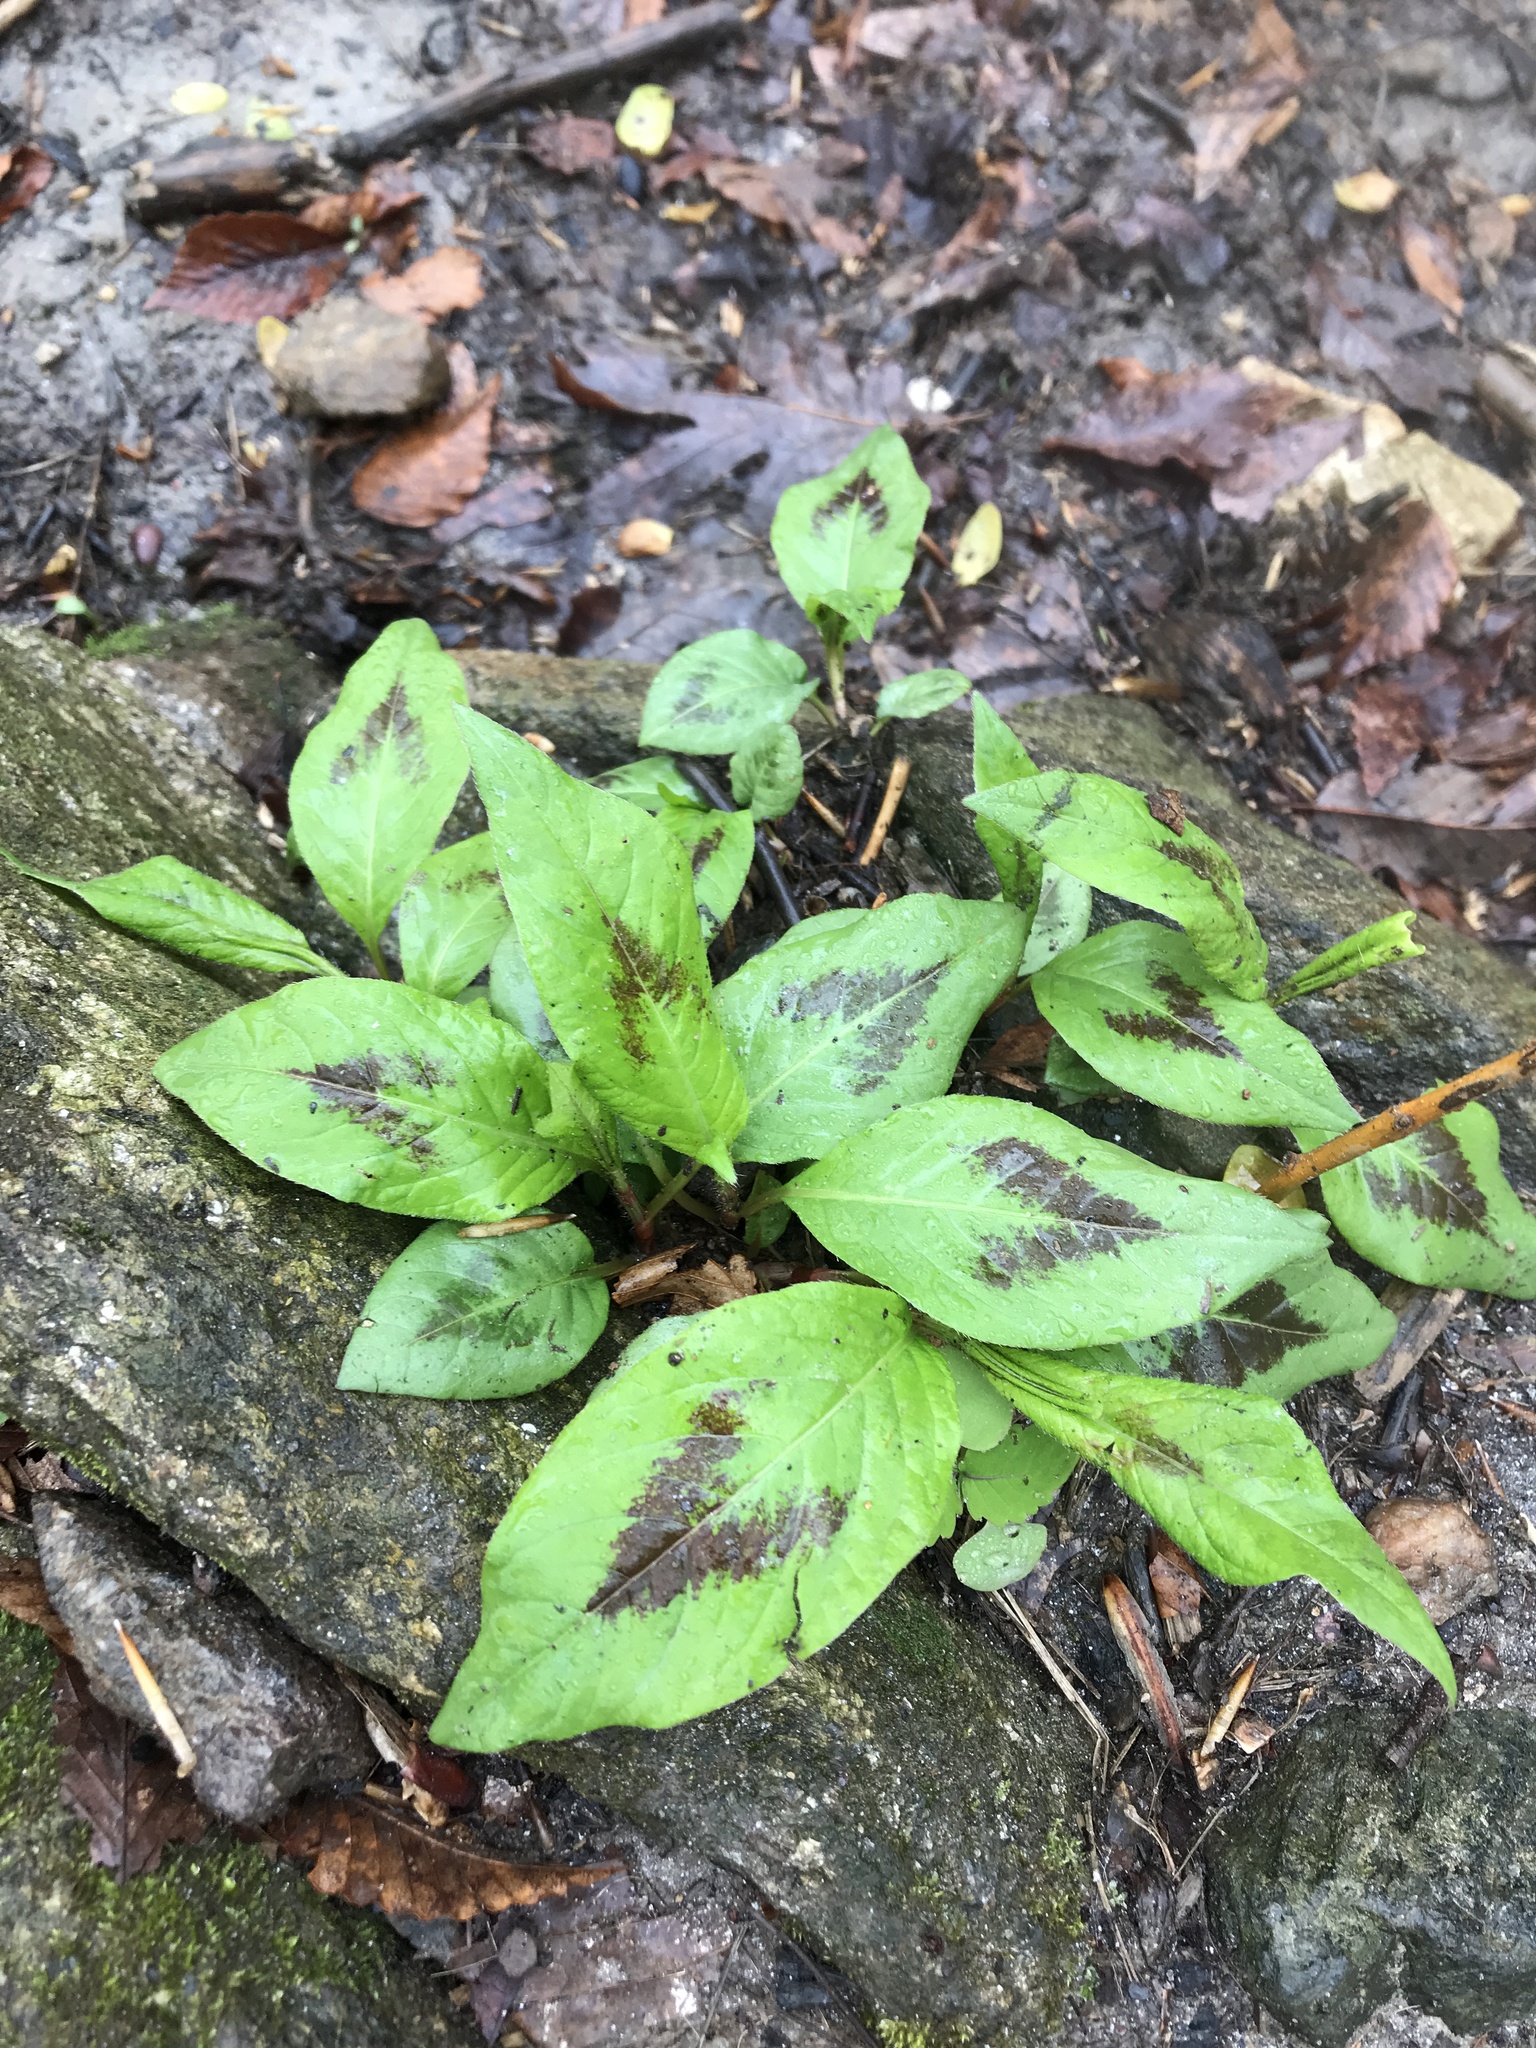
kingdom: Plantae
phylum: Tracheophyta
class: Magnoliopsida
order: Caryophyllales
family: Polygonaceae
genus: Persicaria
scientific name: Persicaria virginiana
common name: Jumpseed
